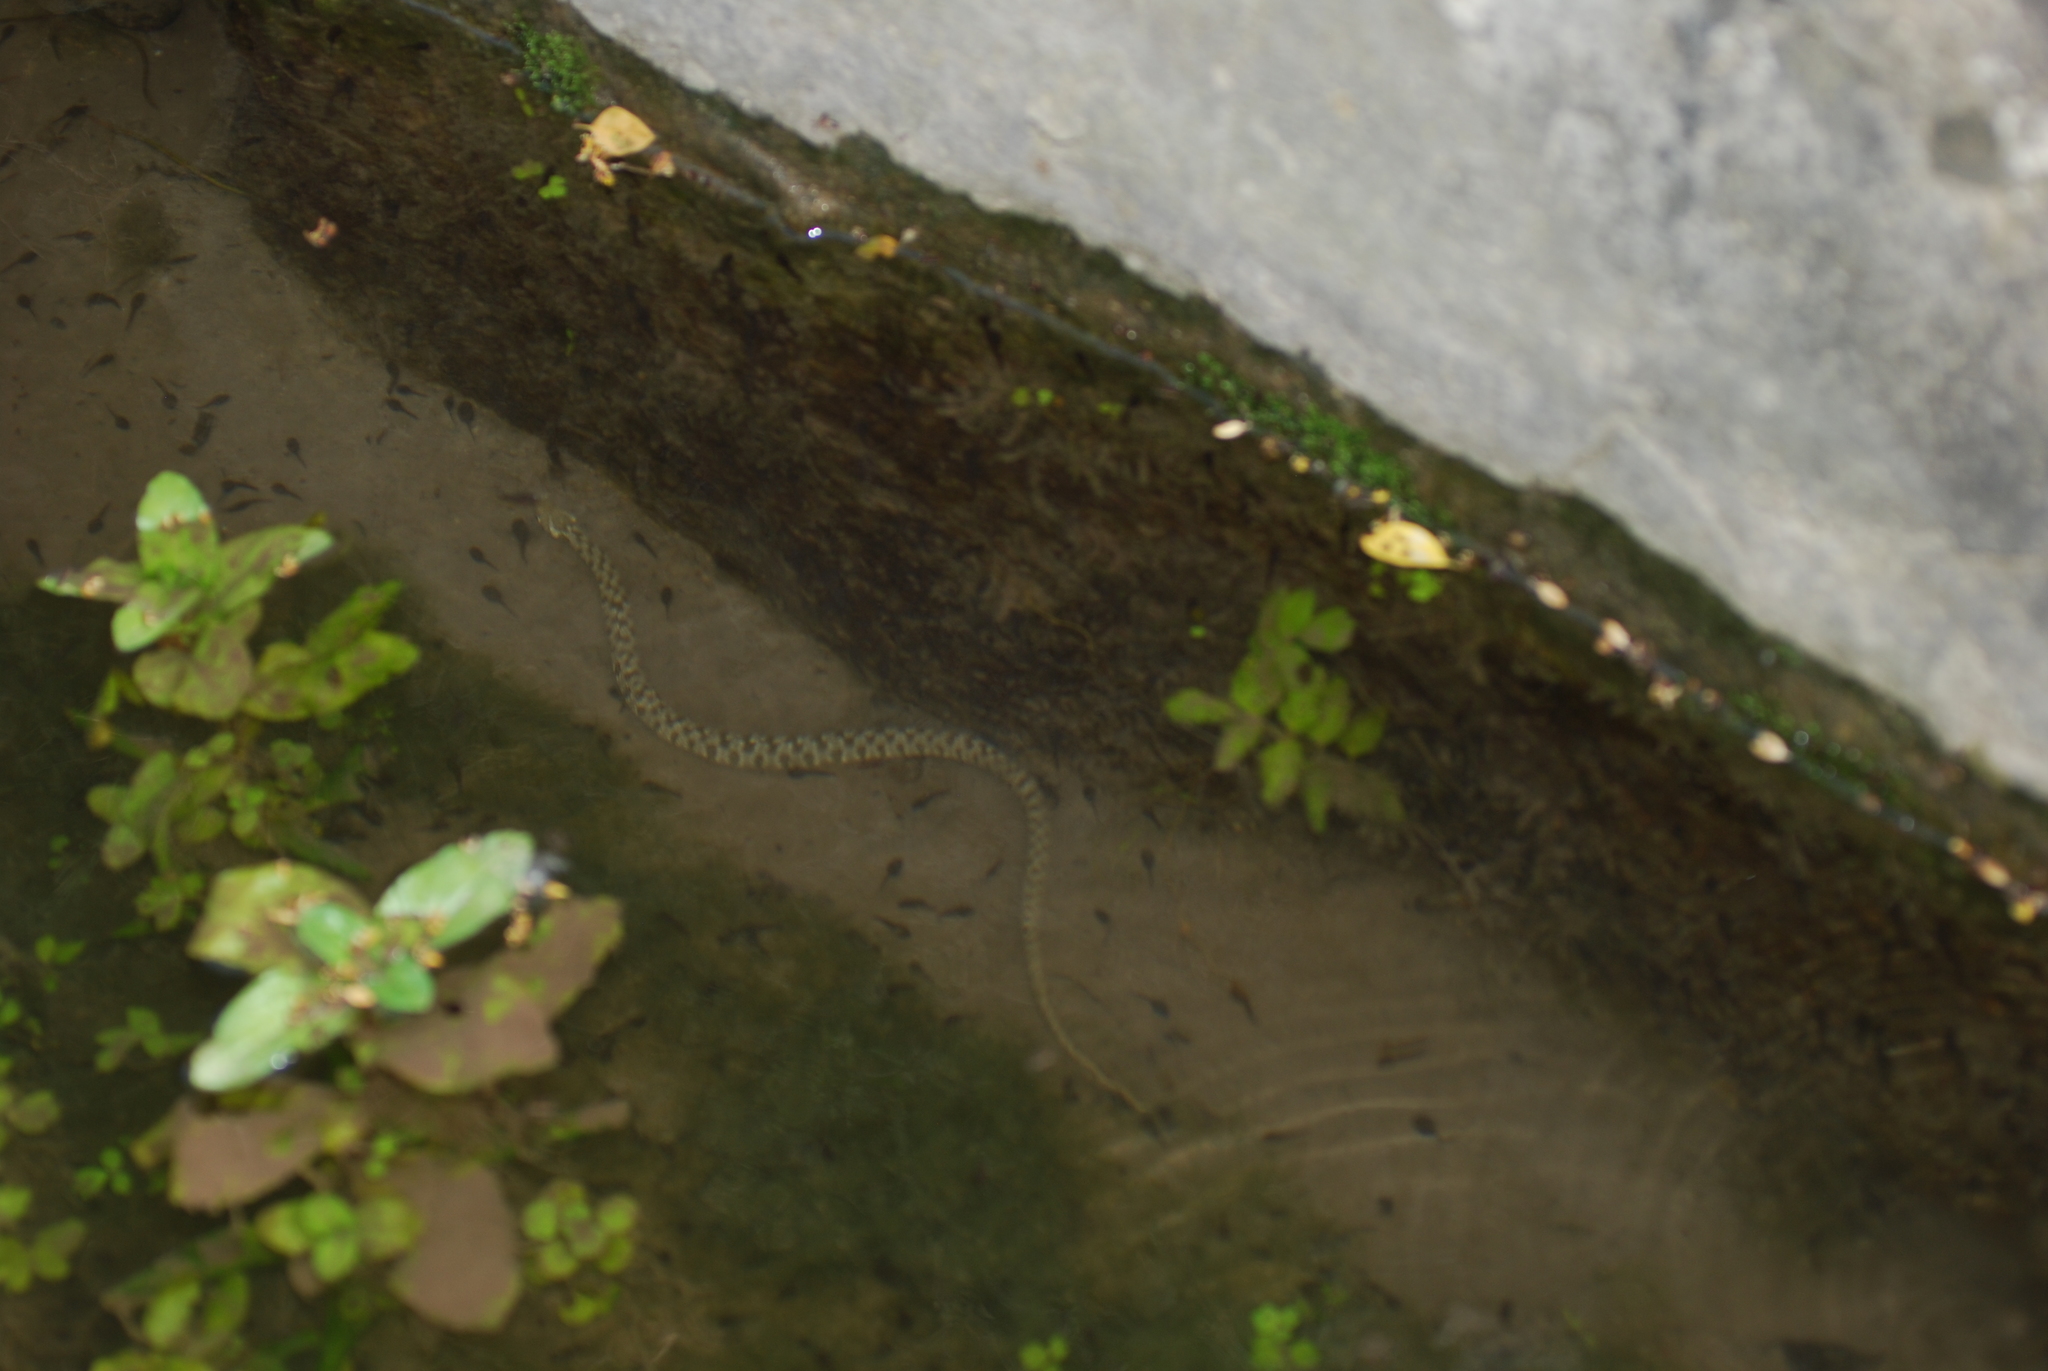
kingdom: Animalia
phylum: Chordata
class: Squamata
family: Colubridae
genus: Natrix
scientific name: Natrix maura
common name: Viperine water snake
